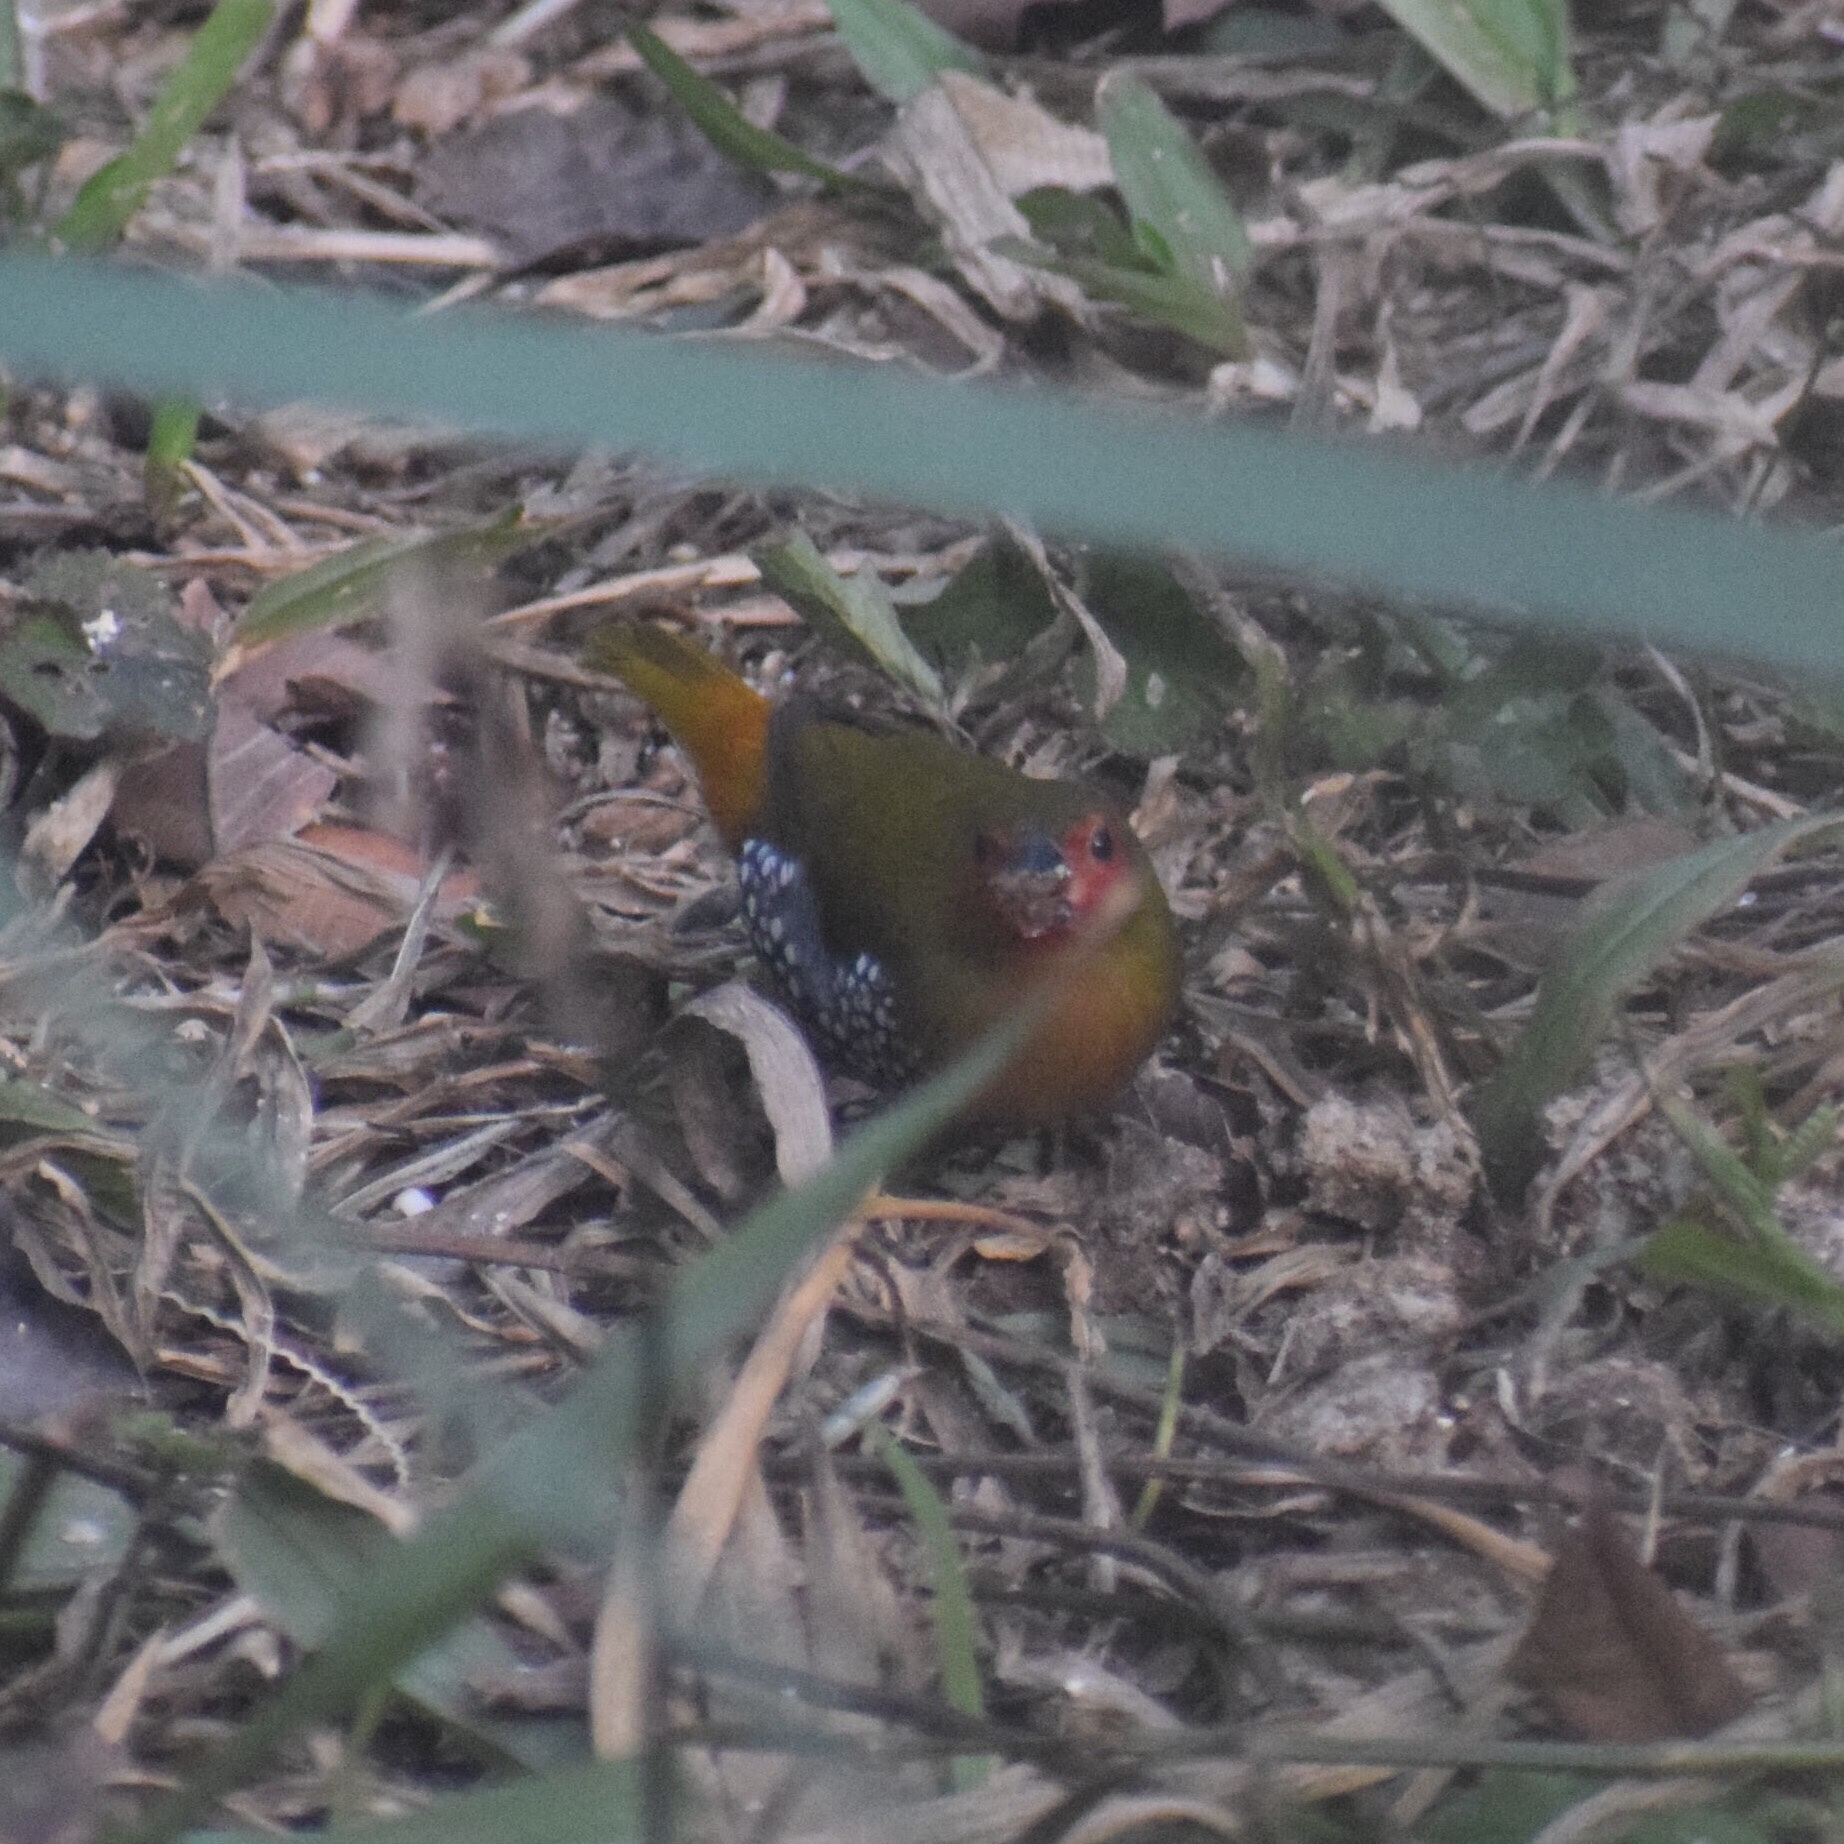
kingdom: Animalia
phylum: Chordata
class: Aves
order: Passeriformes
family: Estrildidae
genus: Mandingoa
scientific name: Mandingoa nitidula
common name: Green twinspot
